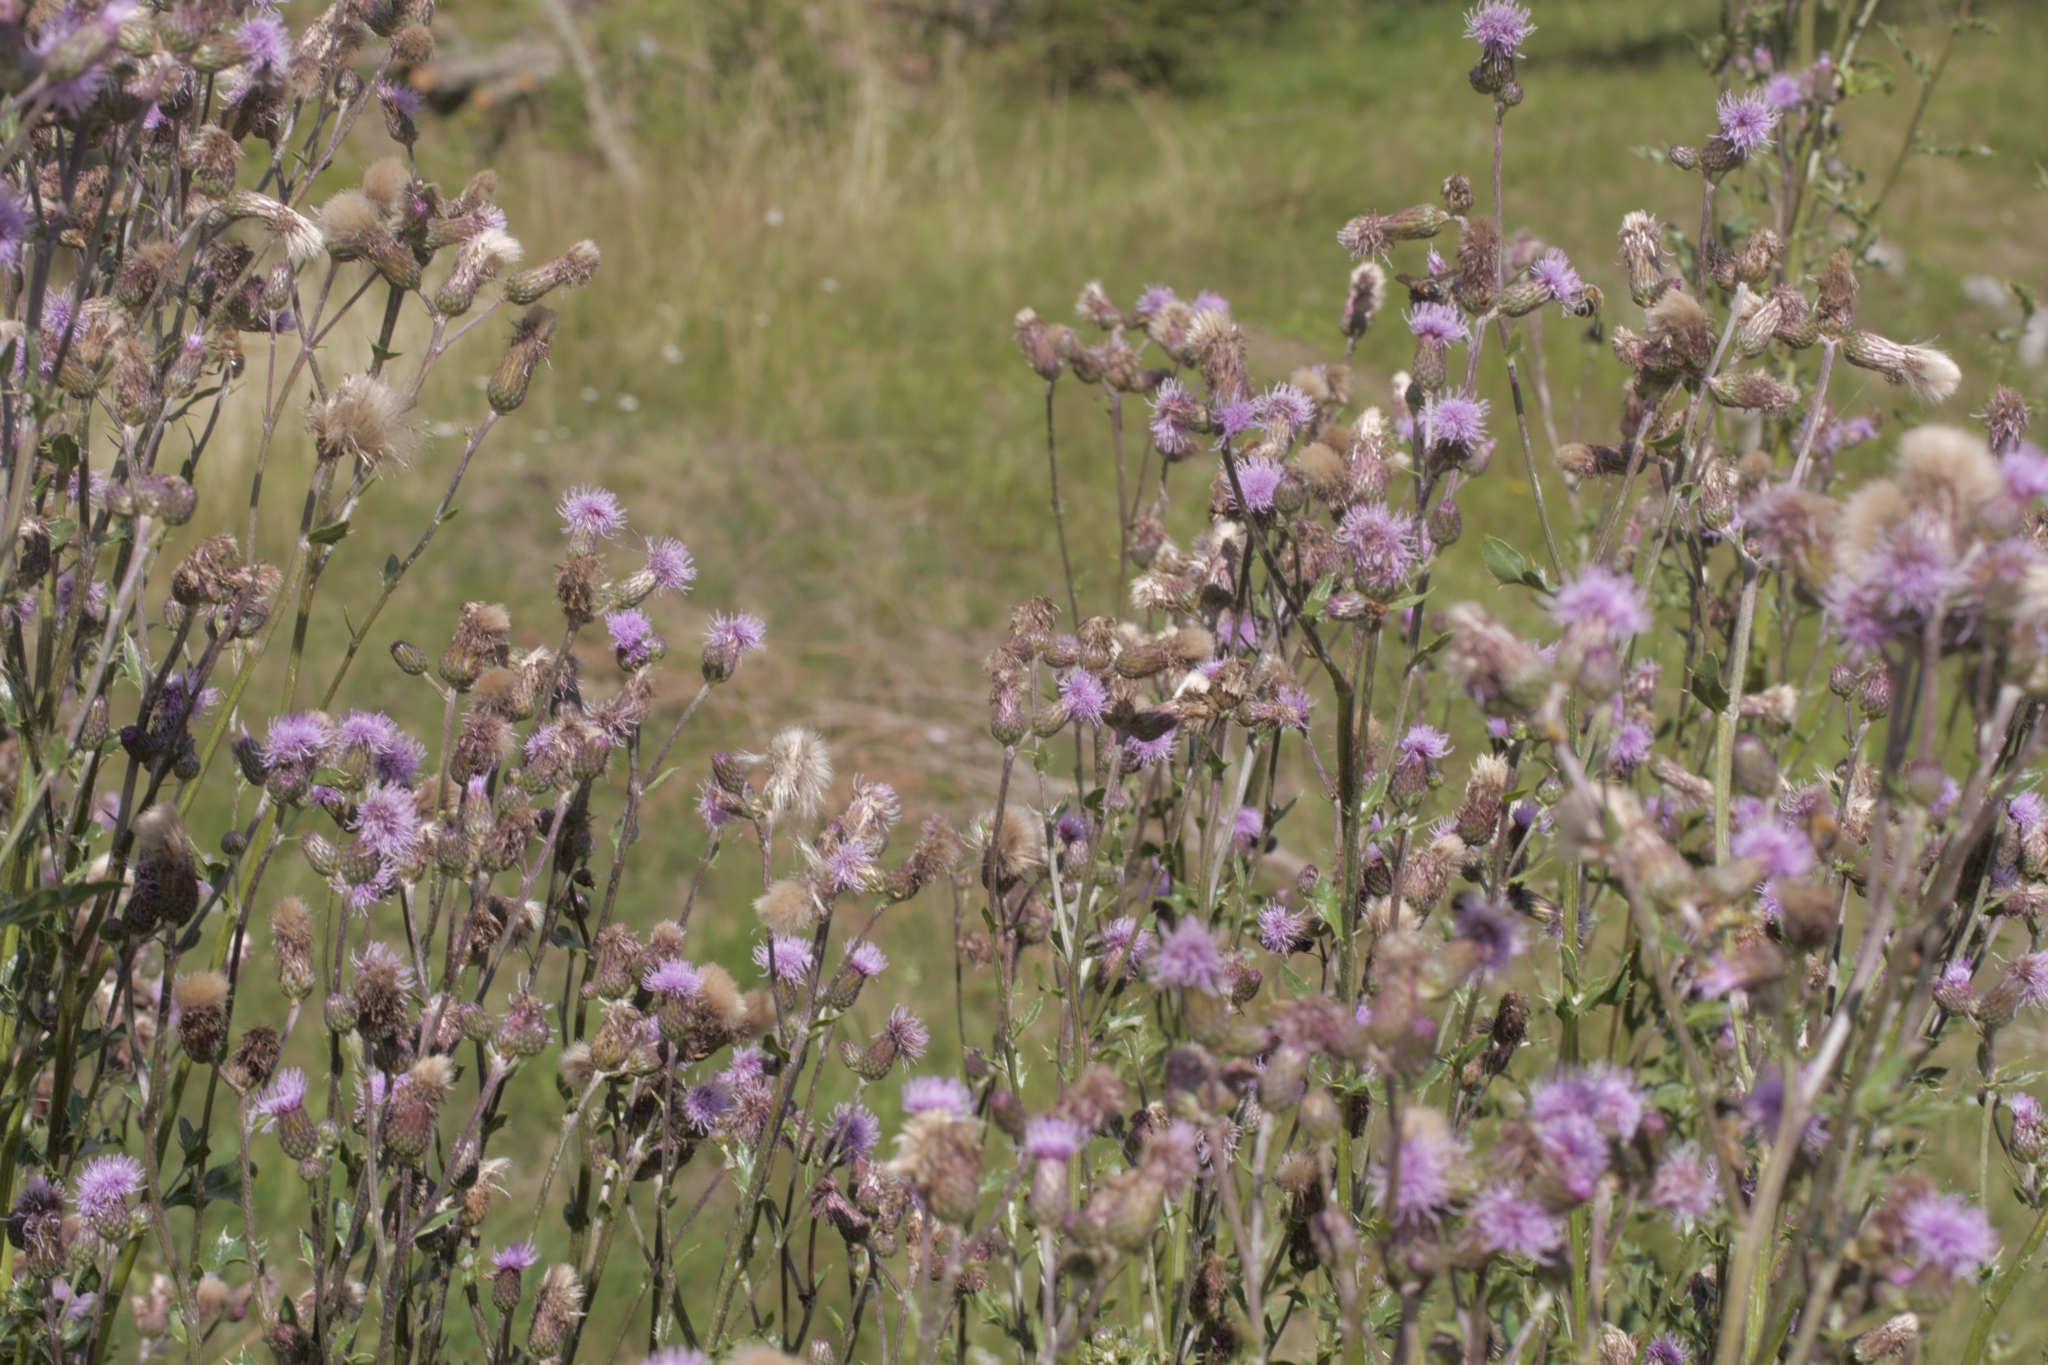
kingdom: Plantae
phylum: Tracheophyta
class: Magnoliopsida
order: Asterales
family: Asteraceae
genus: Cirsium
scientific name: Cirsium arvense
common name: Creeping thistle
